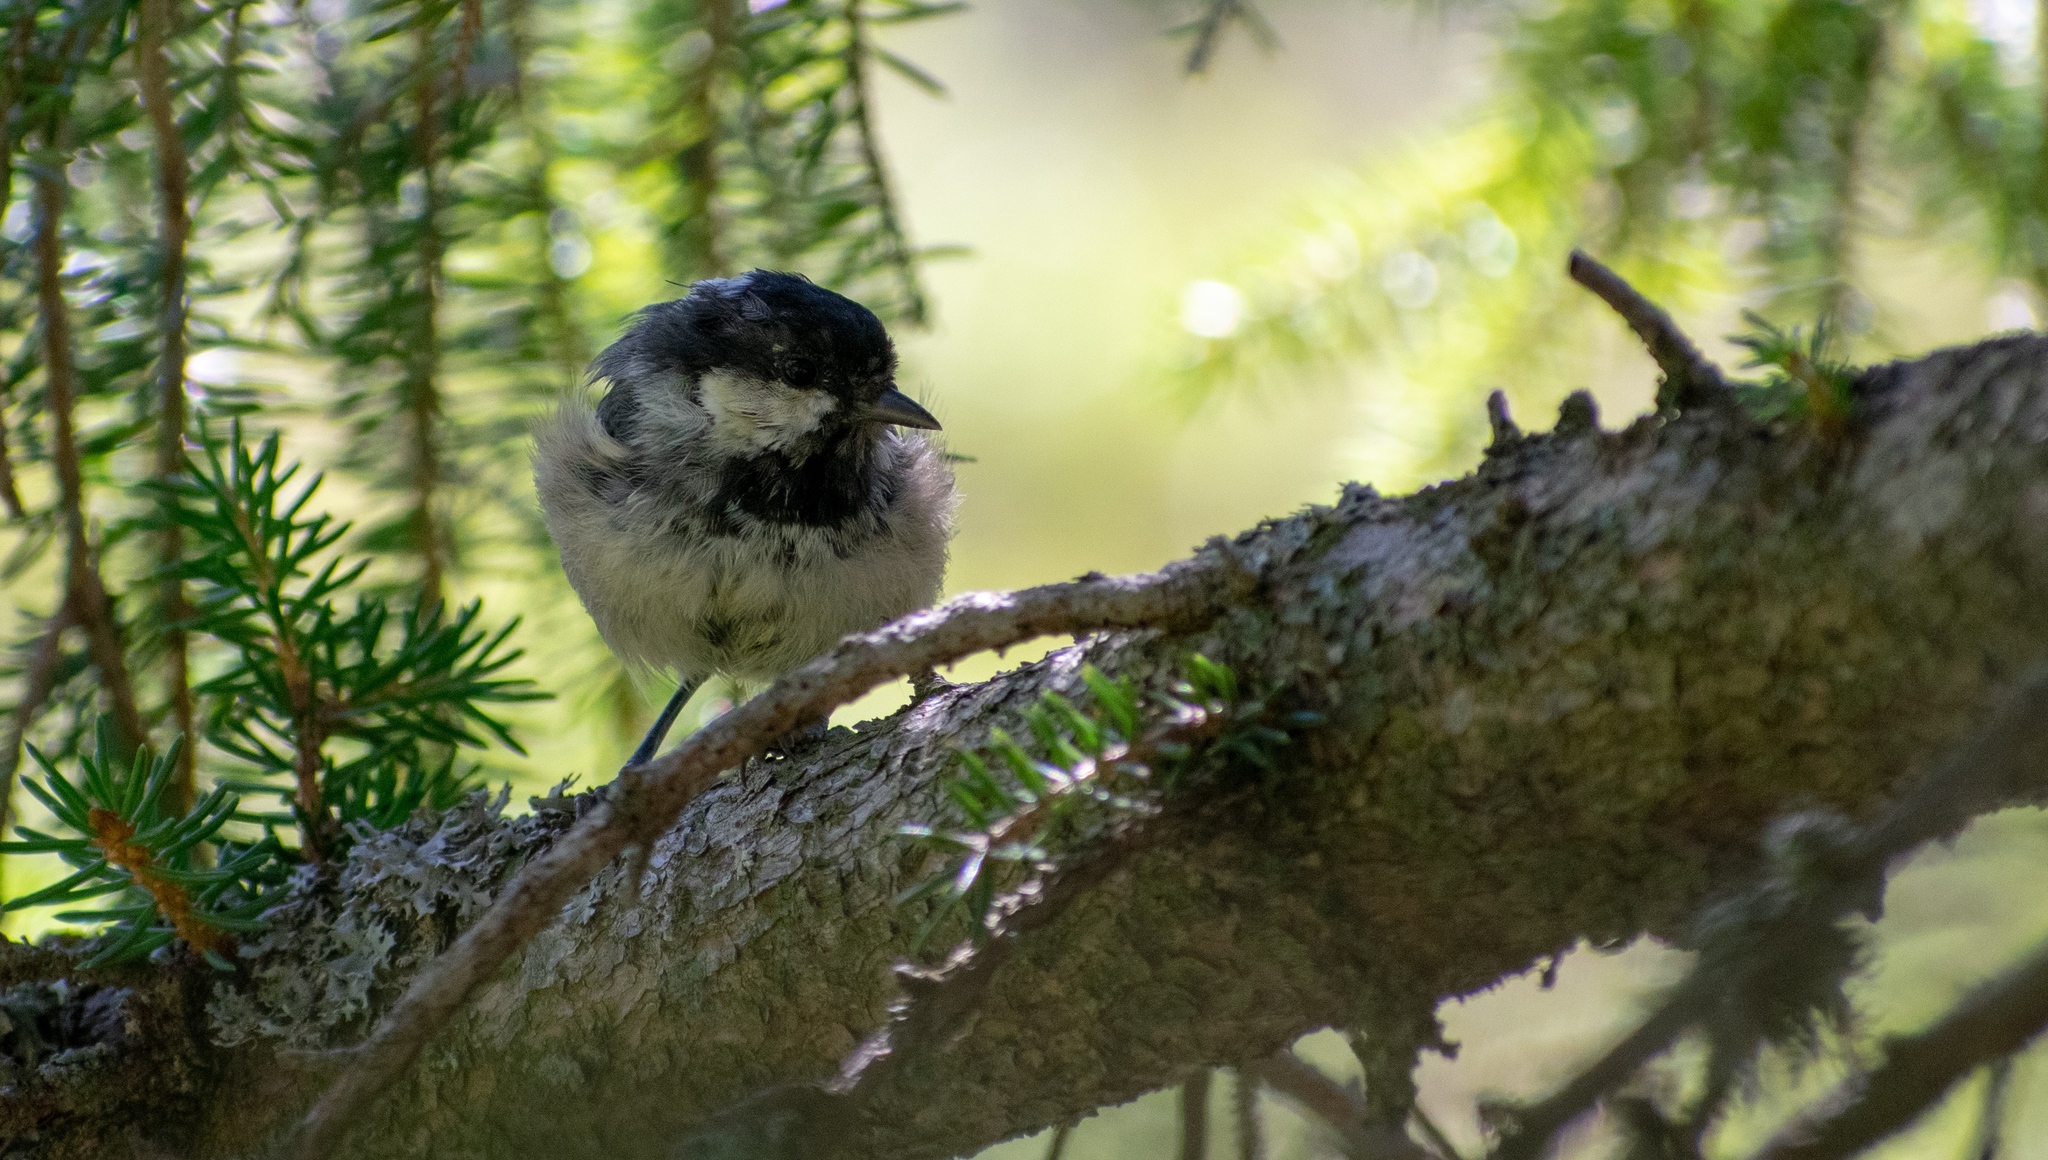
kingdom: Animalia
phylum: Chordata
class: Aves
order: Passeriformes
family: Paridae
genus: Periparus
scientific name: Periparus ater
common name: Coal tit
